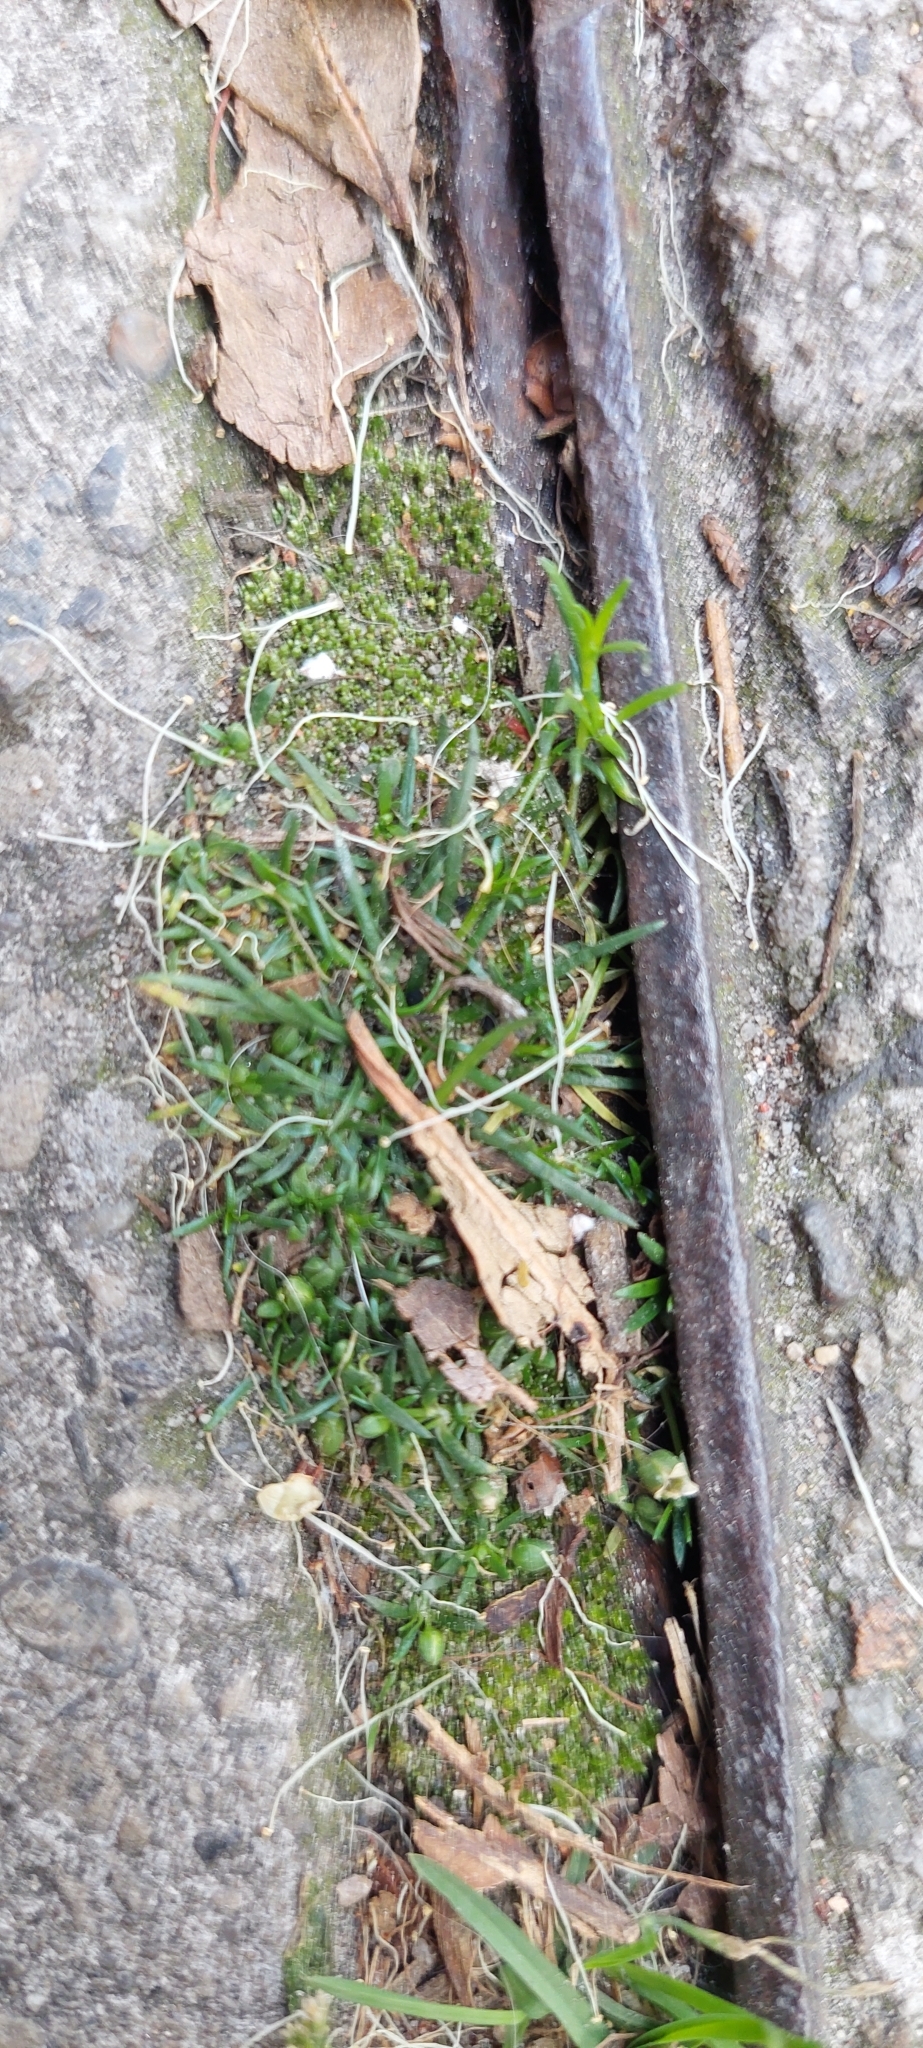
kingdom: Plantae
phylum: Tracheophyta
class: Magnoliopsida
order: Caryophyllales
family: Caryophyllaceae
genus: Sagina
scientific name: Sagina procumbens
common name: Procumbent pearlwort
